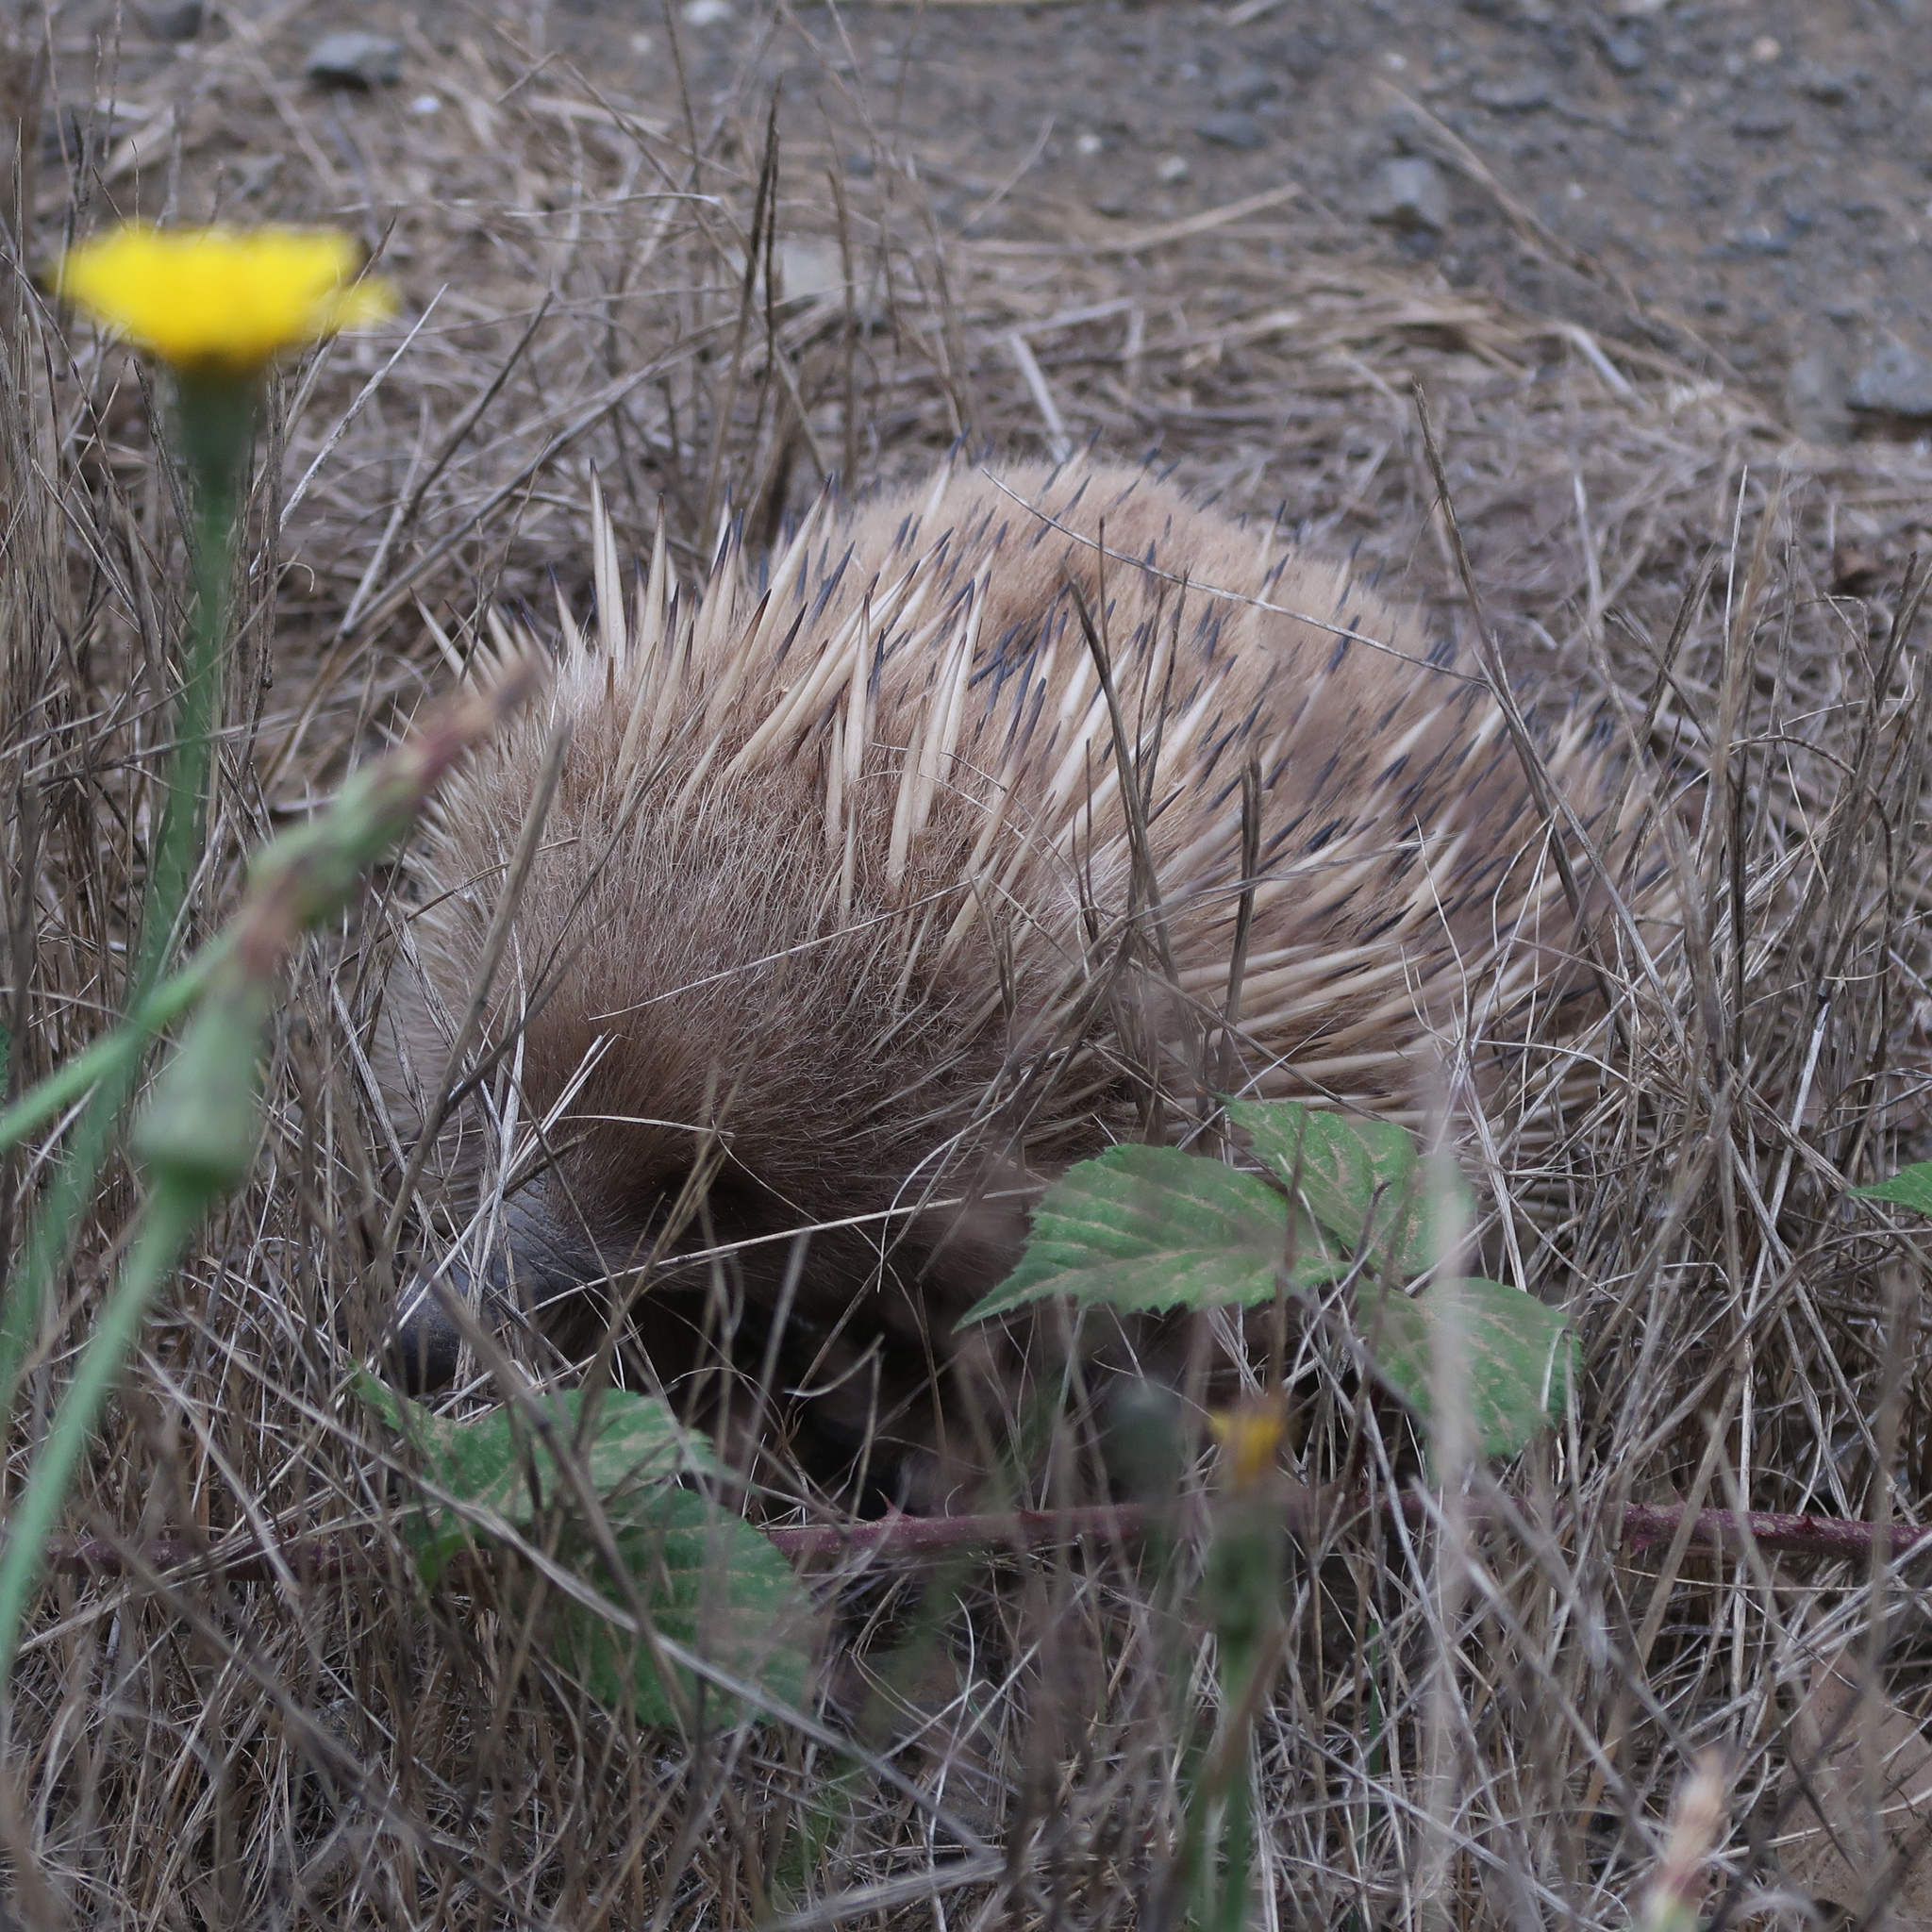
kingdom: Animalia
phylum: Chordata
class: Mammalia
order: Monotremata
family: Tachyglossidae
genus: Tachyglossus
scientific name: Tachyglossus aculeatus
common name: Short-beaked echidna
